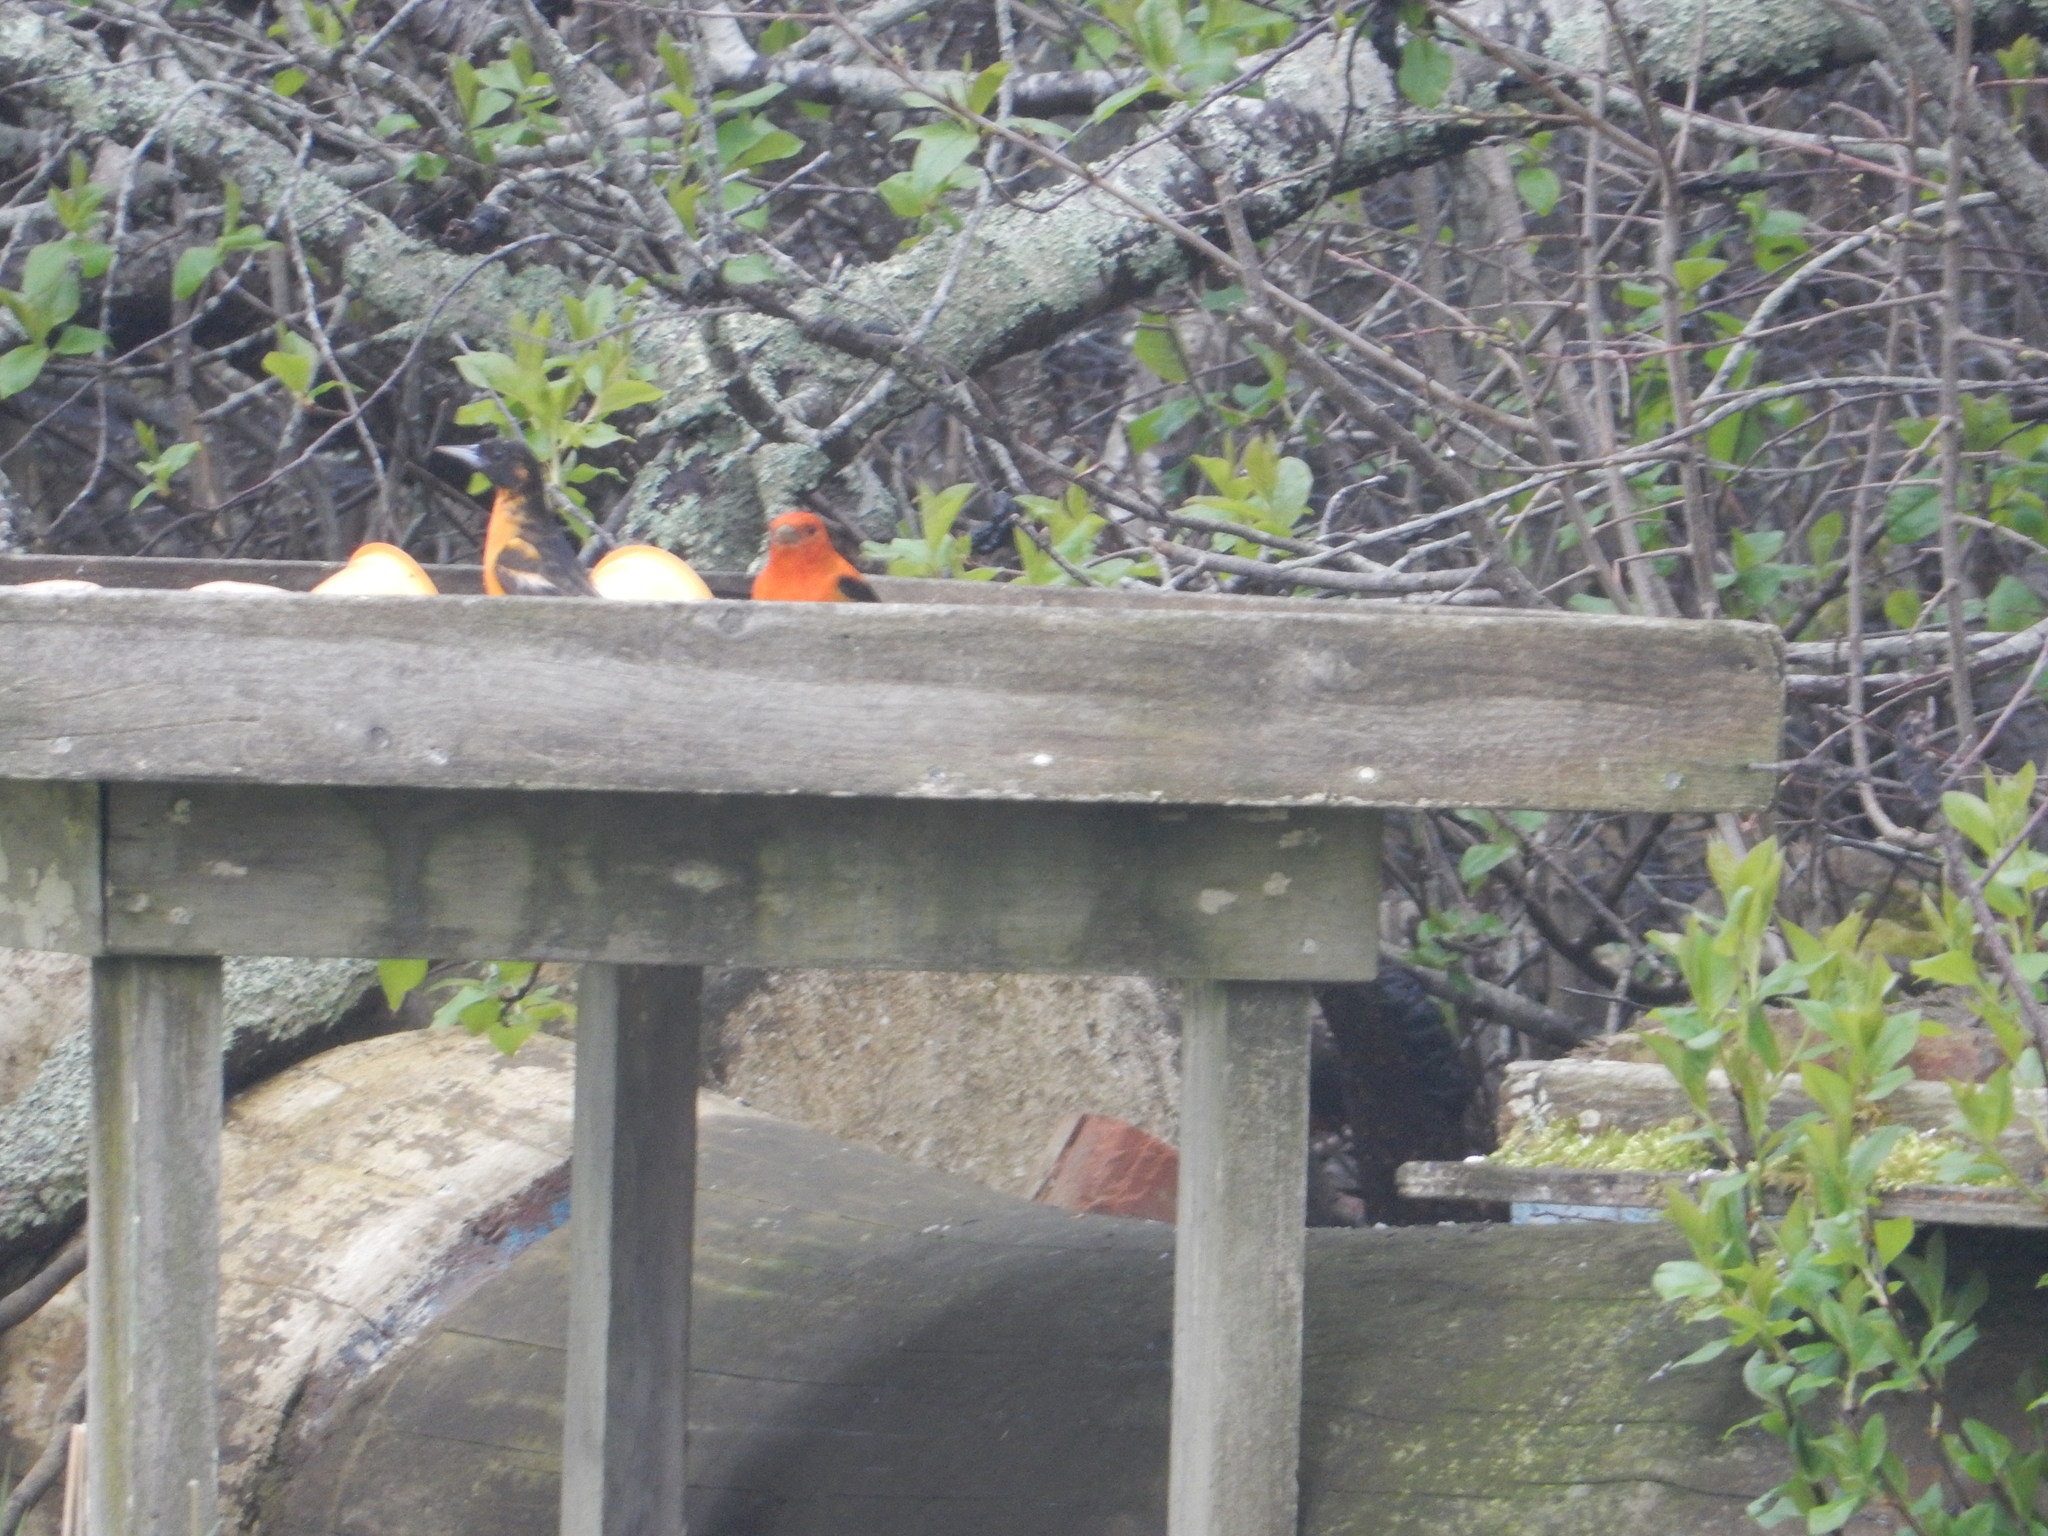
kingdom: Animalia
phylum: Chordata
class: Aves
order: Passeriformes
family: Icteridae
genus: Icterus
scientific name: Icterus galbula
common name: Baltimore oriole
